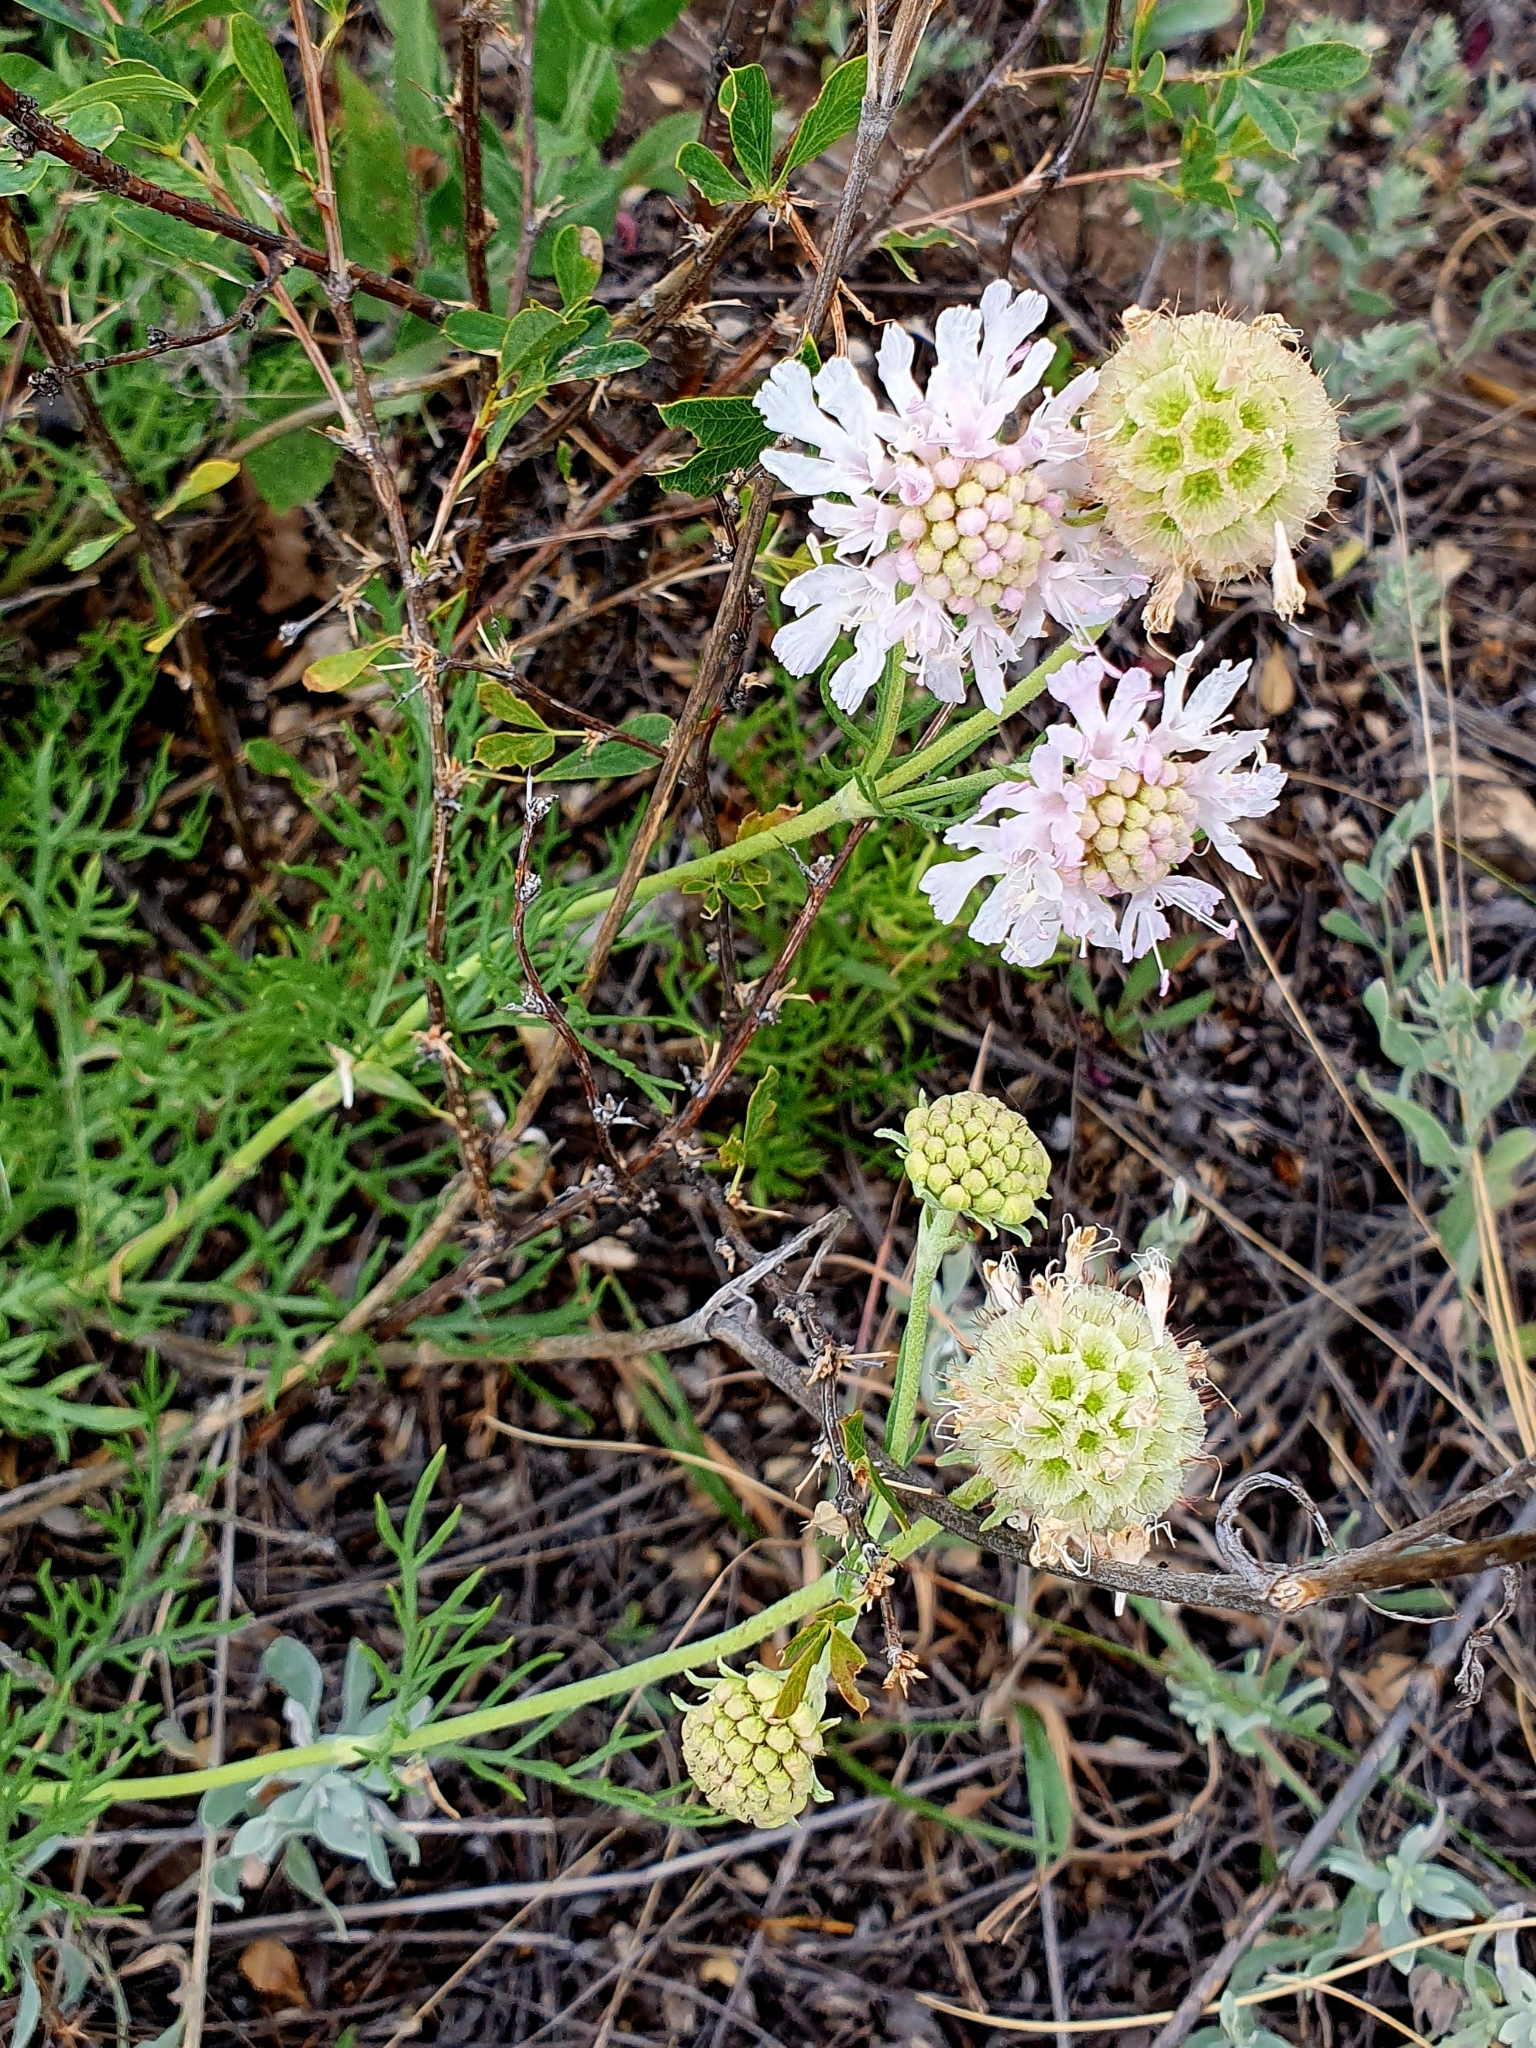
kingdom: Plantae
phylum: Tracheophyta
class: Magnoliopsida
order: Dipsacales
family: Caprifoliaceae
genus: Lomelosia
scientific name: Lomelosia isetensis
